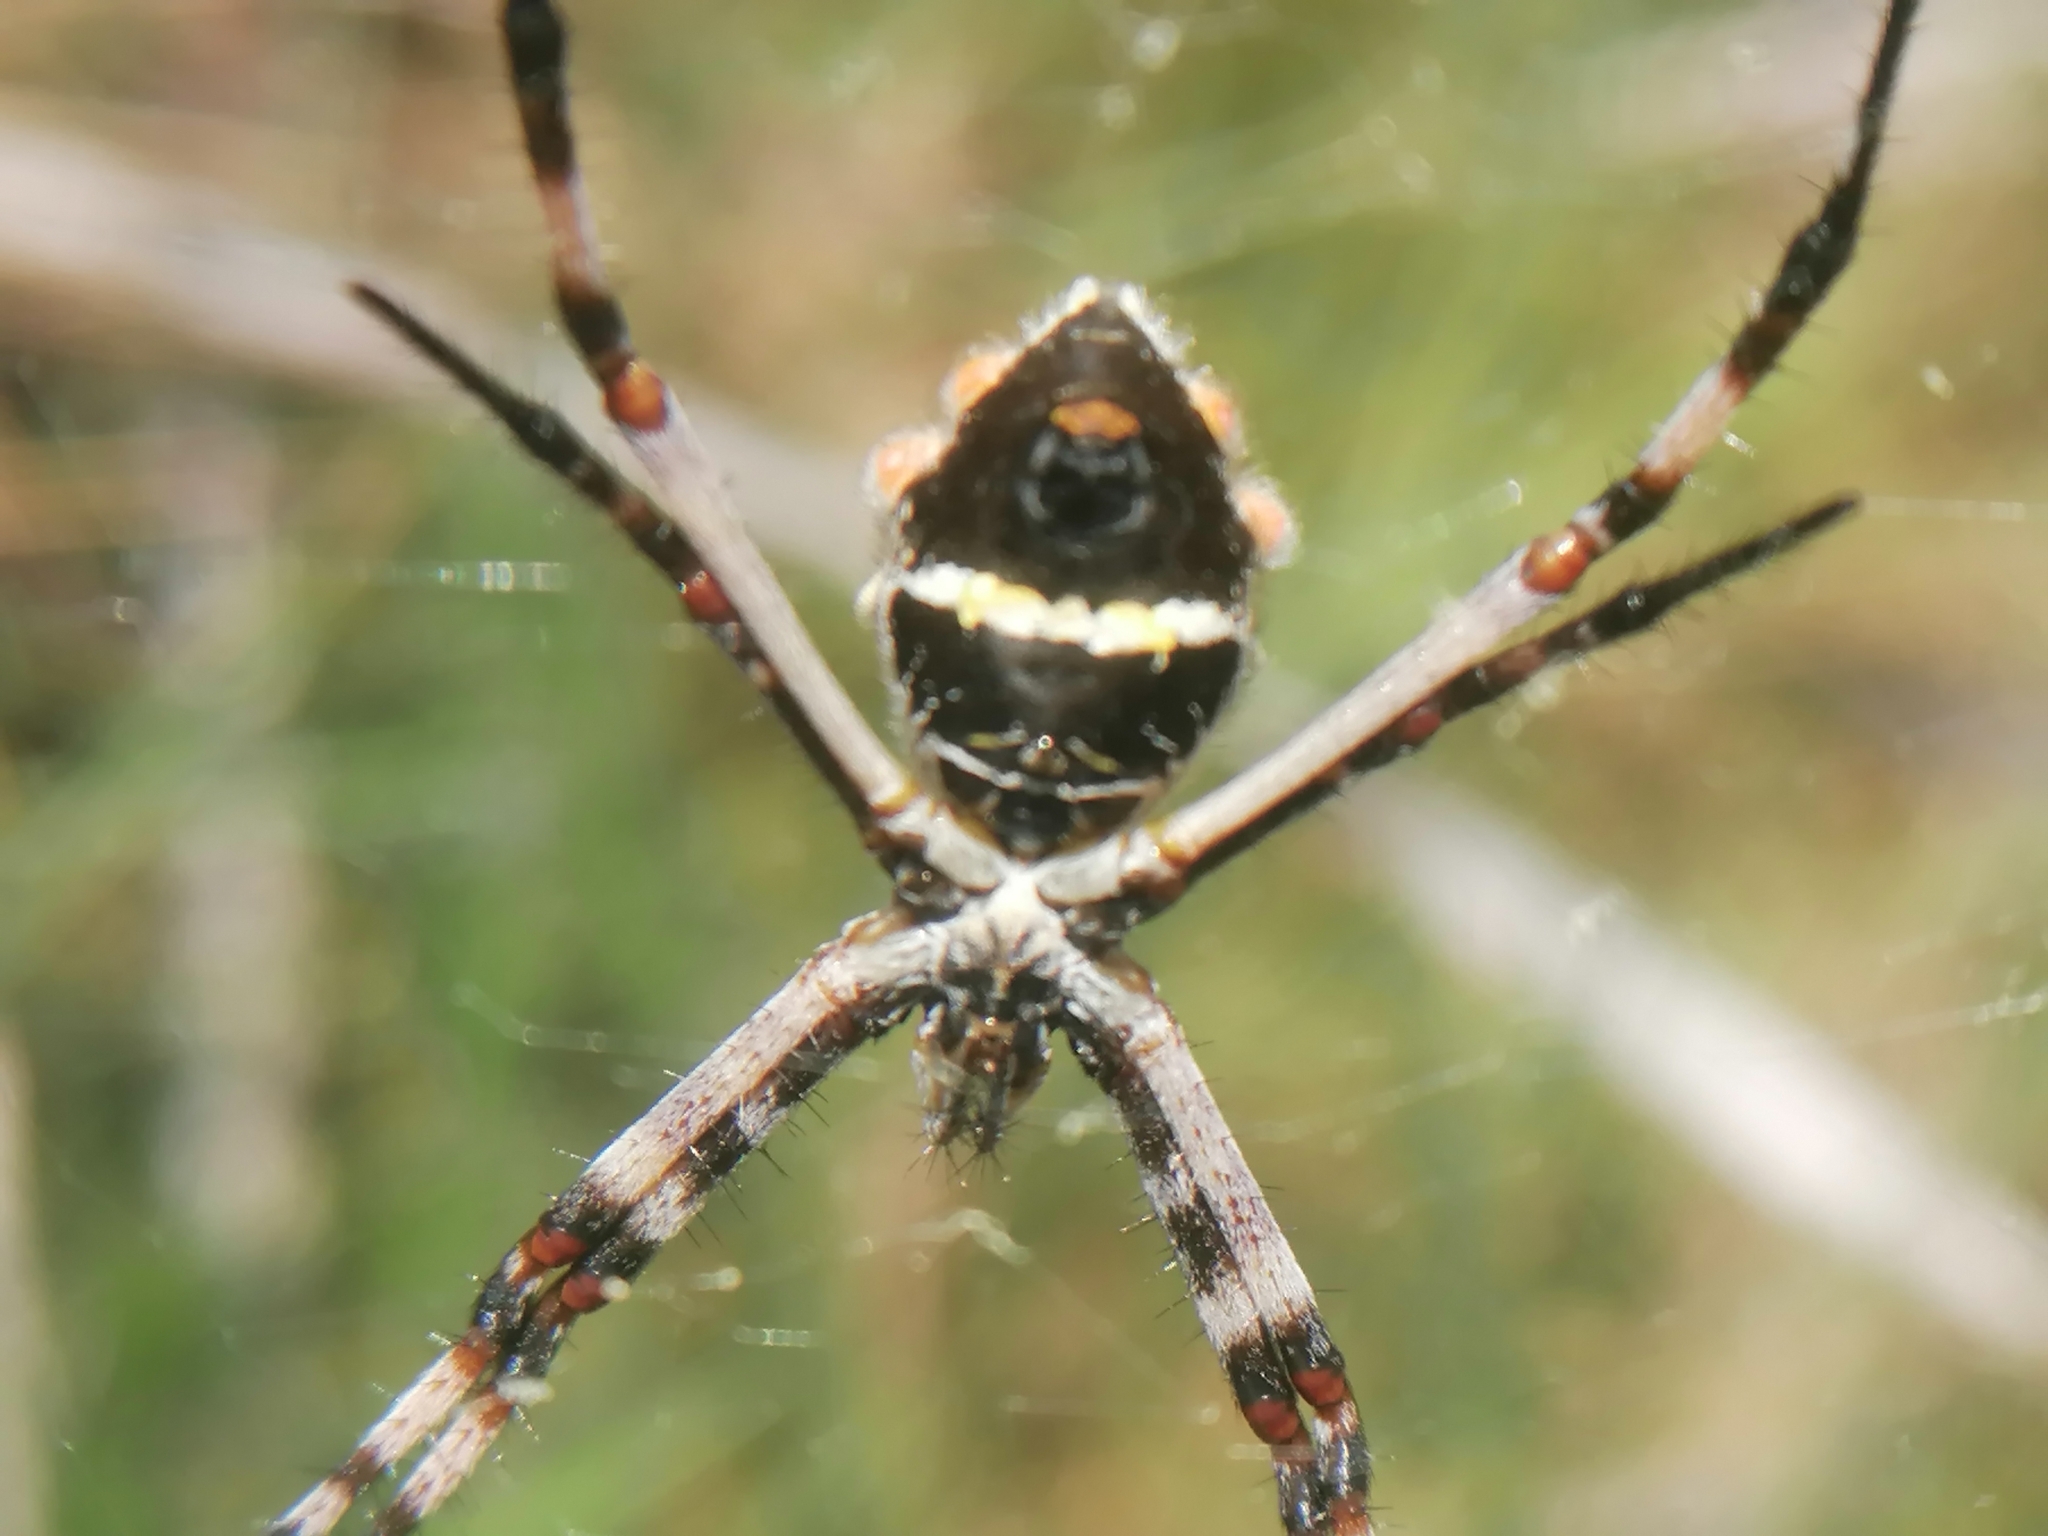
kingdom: Animalia
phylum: Arthropoda
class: Arachnida
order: Araneae
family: Araneidae
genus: Argiope
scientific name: Argiope argentata
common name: Orb weavers
